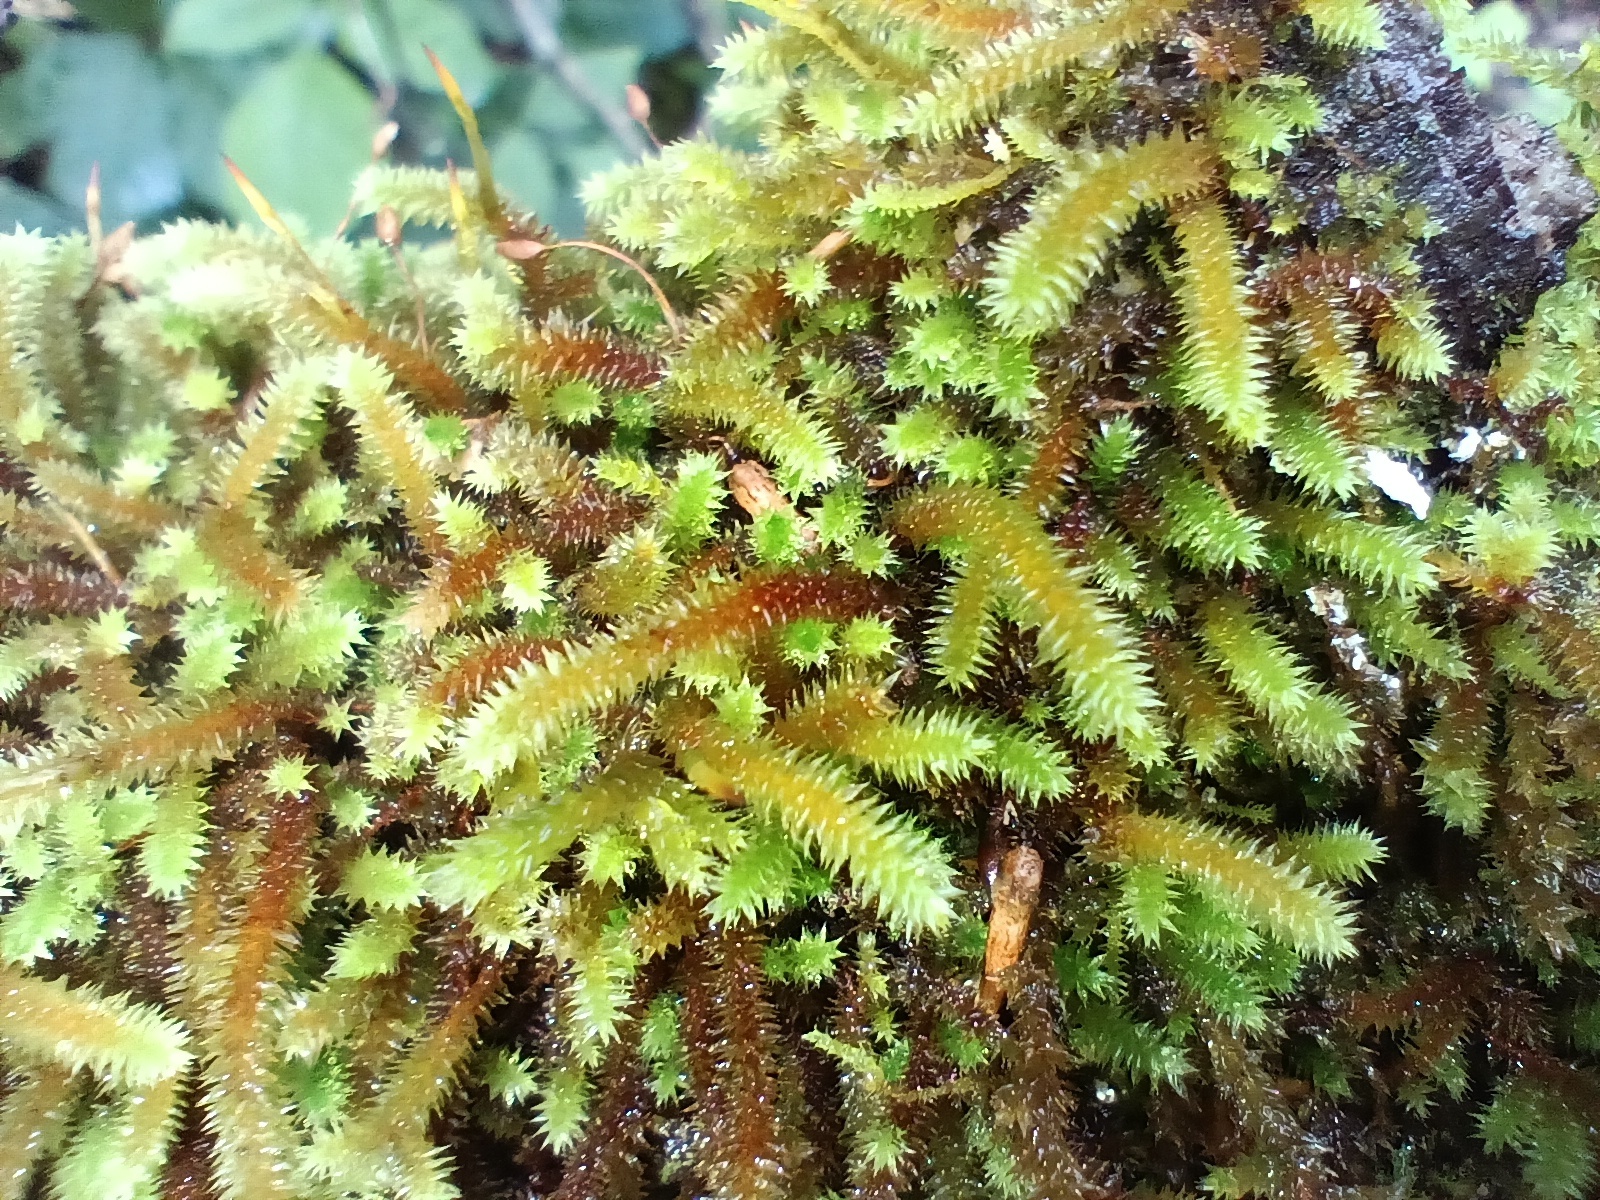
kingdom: Plantae
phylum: Bryophyta
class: Bryopsida
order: Hypnales
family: Leucodontaceae
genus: Leucodon
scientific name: Leucodon julaceus
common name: Smooth hook moss
